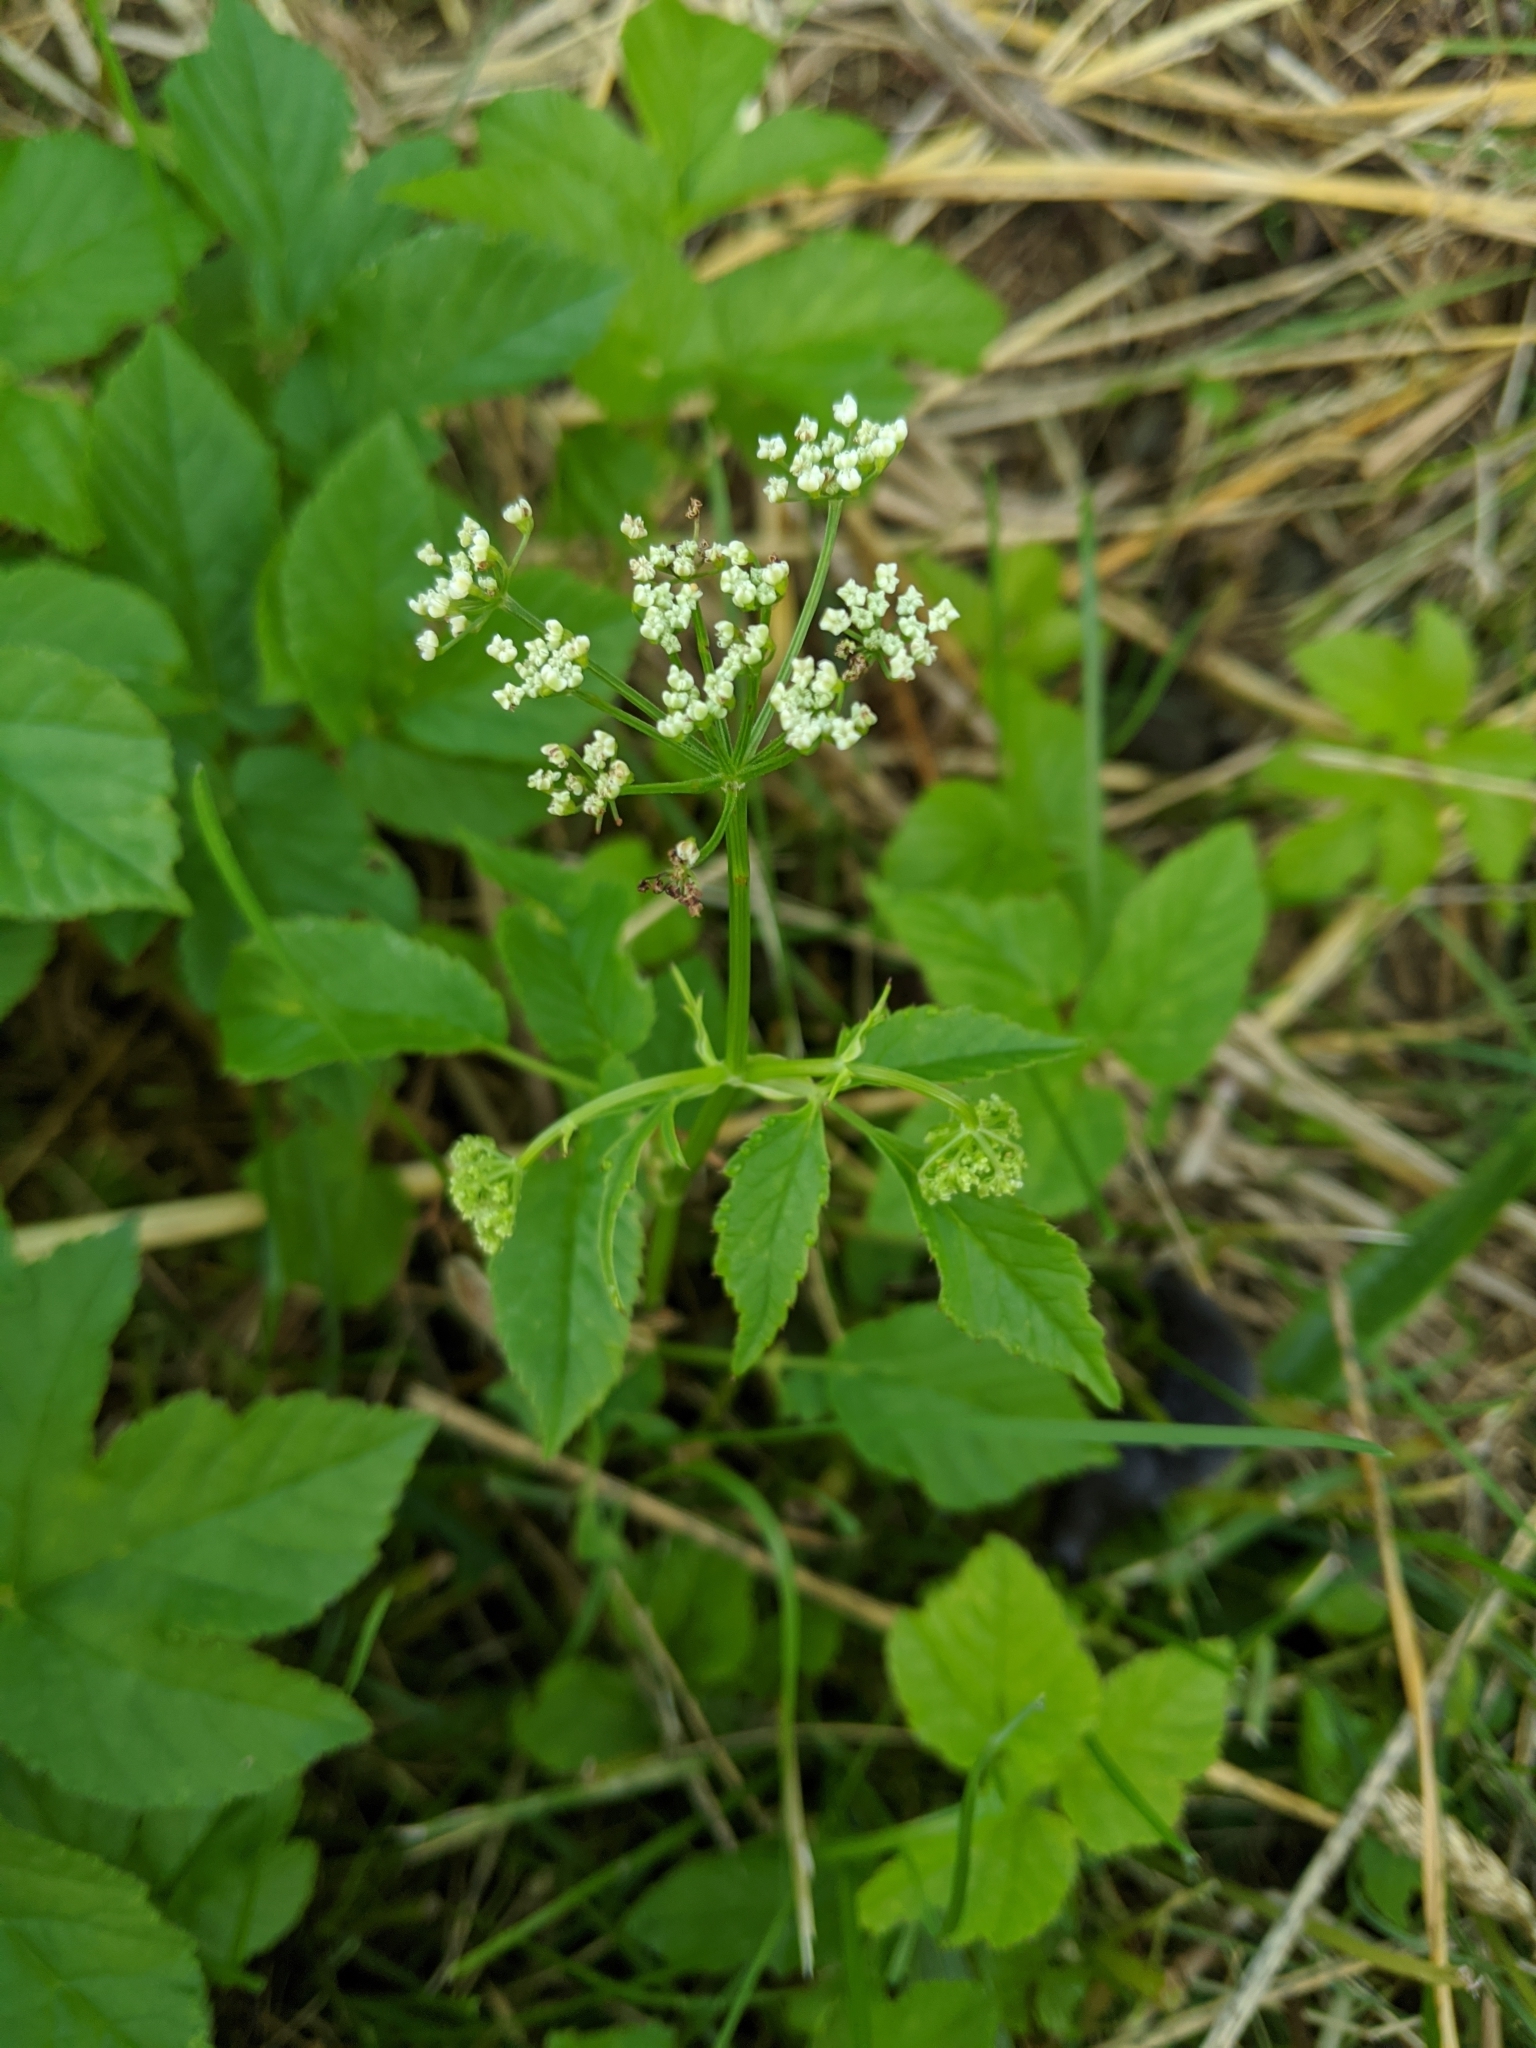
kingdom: Plantae
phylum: Tracheophyta
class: Magnoliopsida
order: Apiales
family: Apiaceae
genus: Aegopodium
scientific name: Aegopodium podagraria
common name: Ground-elder
